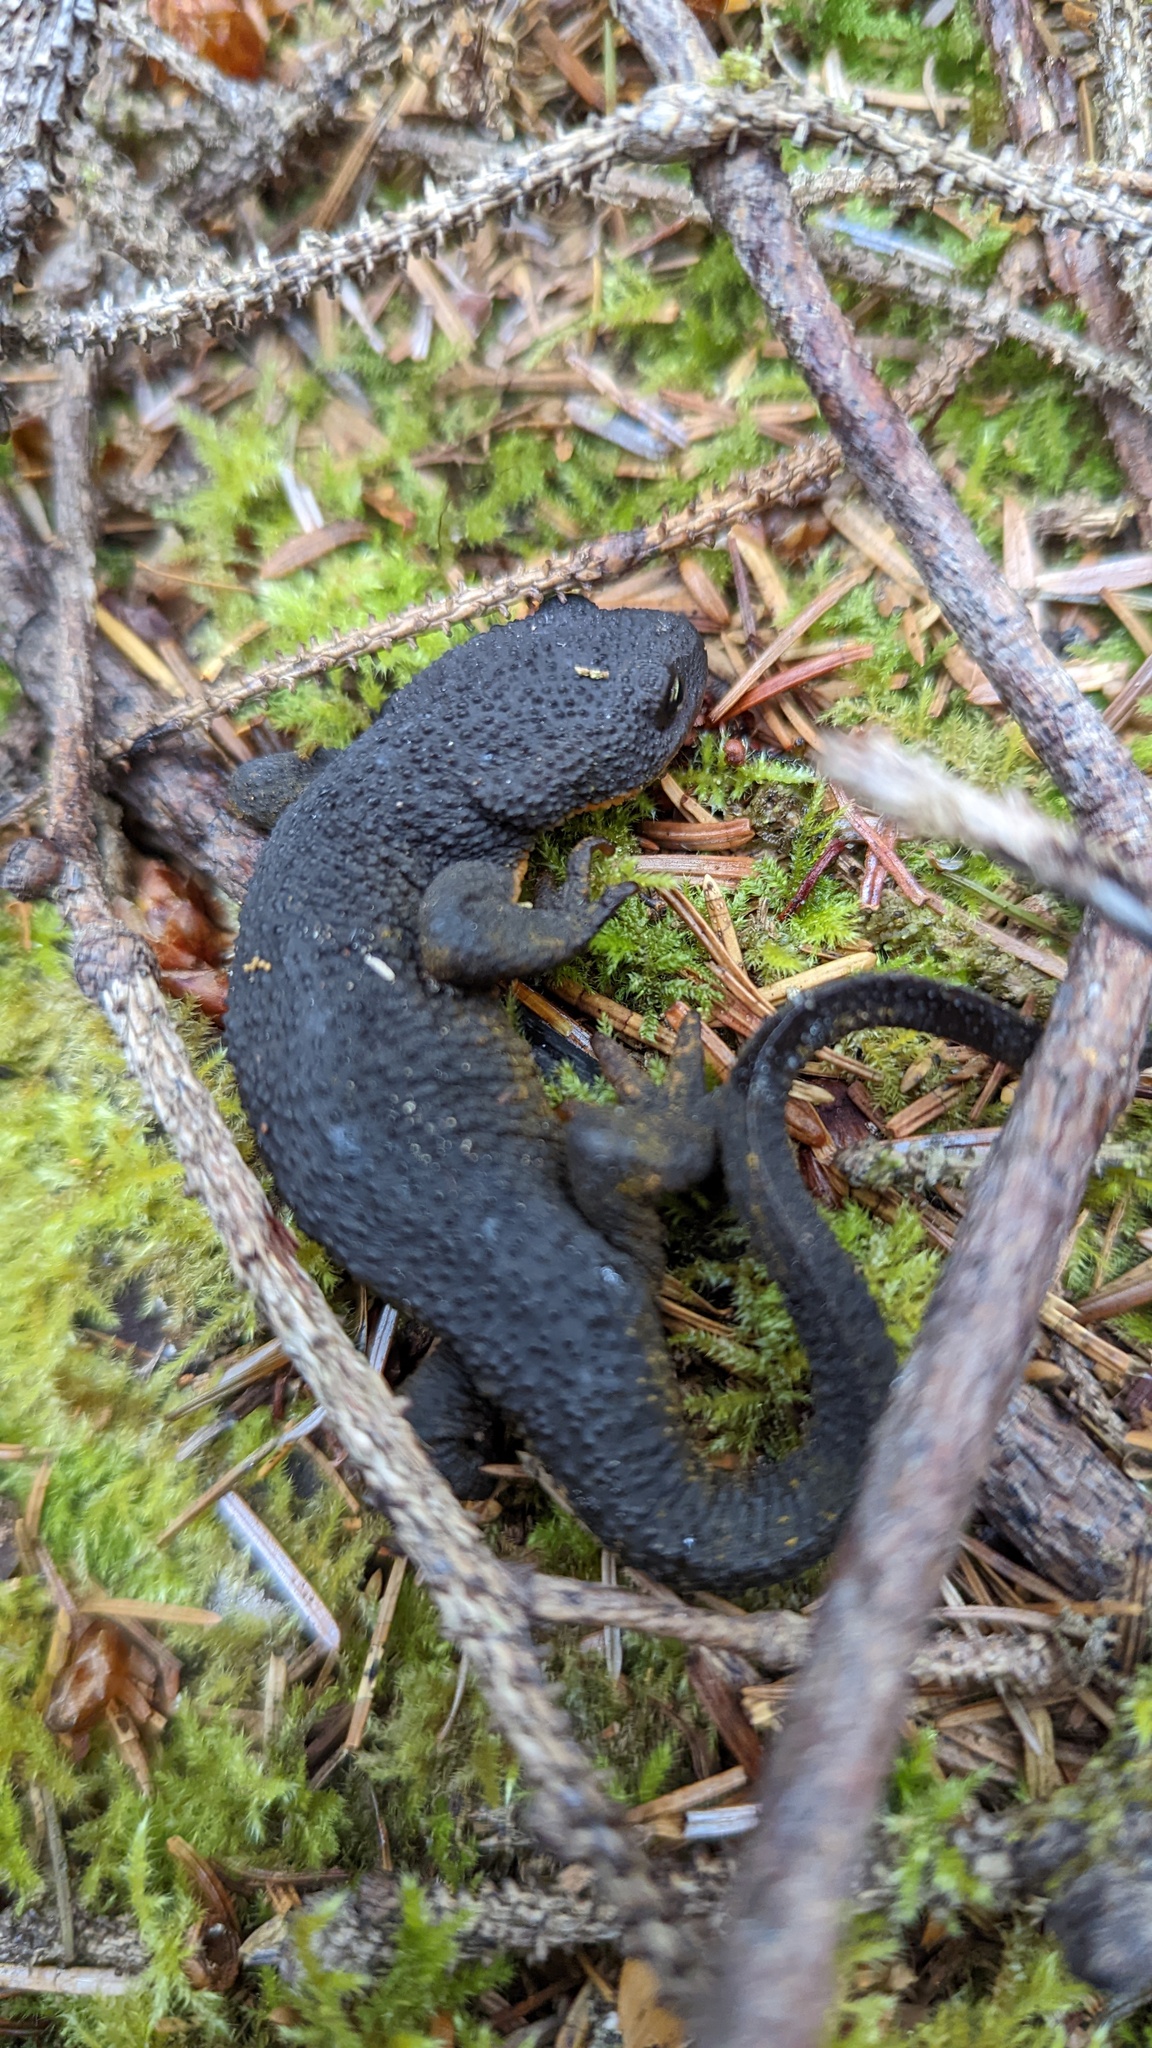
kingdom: Animalia
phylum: Chordata
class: Amphibia
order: Caudata
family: Salamandridae
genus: Taricha
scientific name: Taricha granulosa
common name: Roughskin newt
